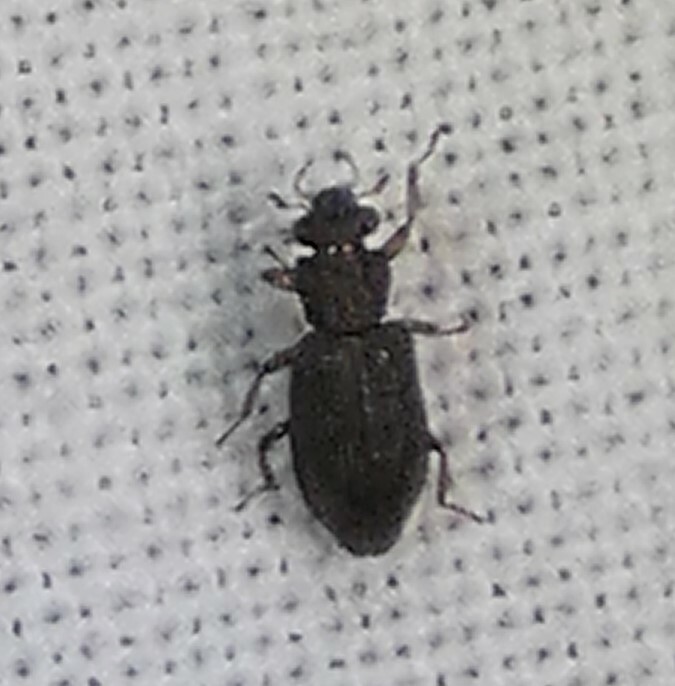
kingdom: Animalia
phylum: Arthropoda
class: Insecta
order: Coleoptera
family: Hydrochidae
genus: Hydrochus
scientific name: Hydrochus
